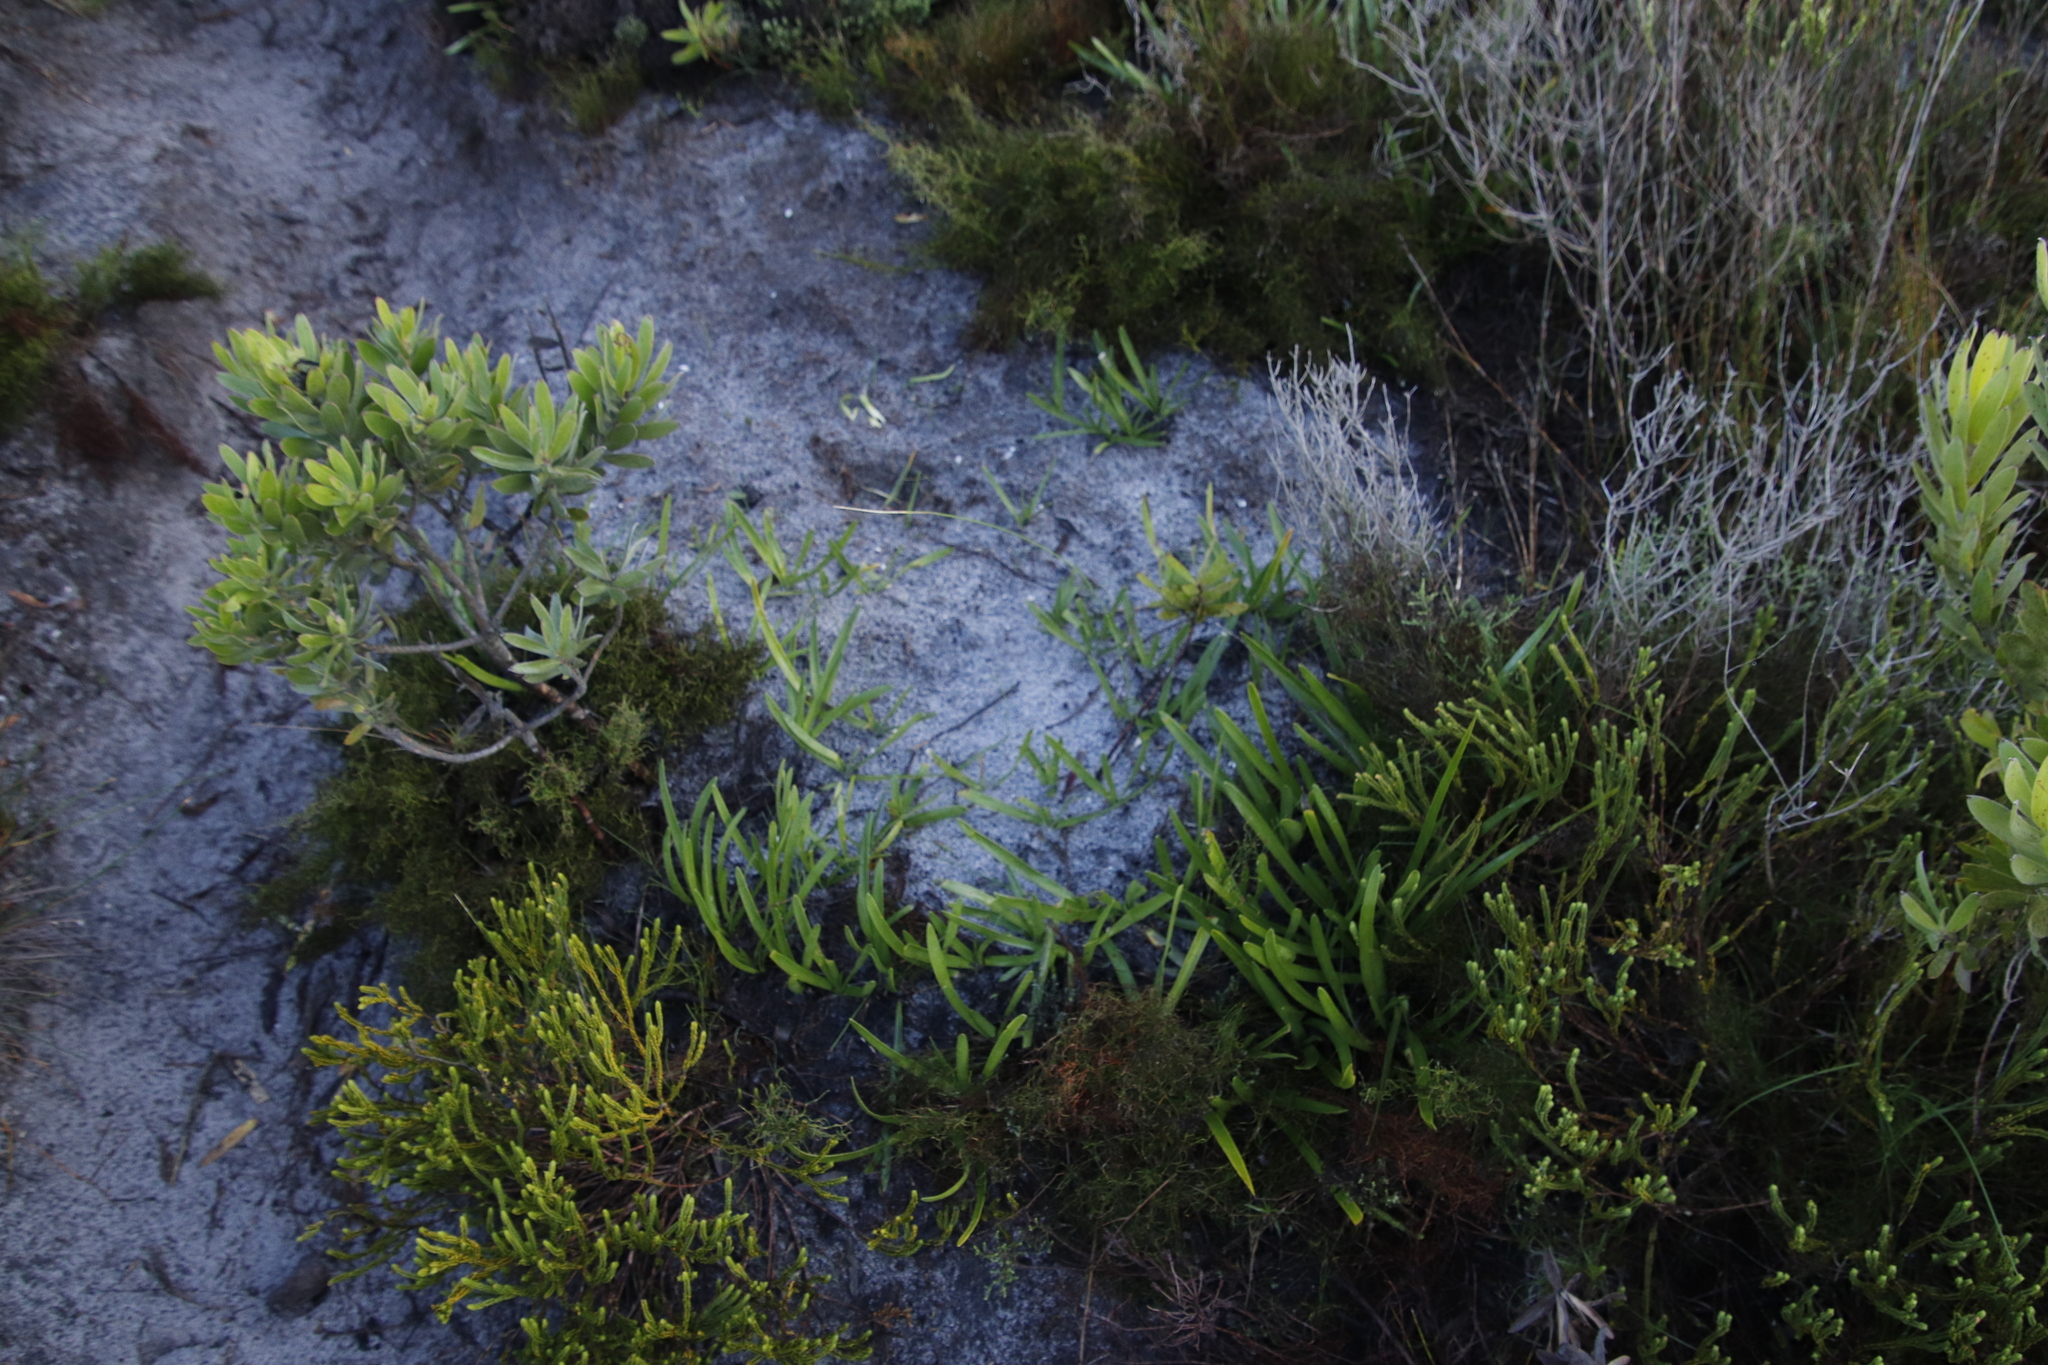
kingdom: Plantae
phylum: Tracheophyta
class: Liliopsida
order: Asparagales
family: Amaryllidaceae
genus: Agapanthus
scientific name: Agapanthus africanus
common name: Lily-of-the-nile
